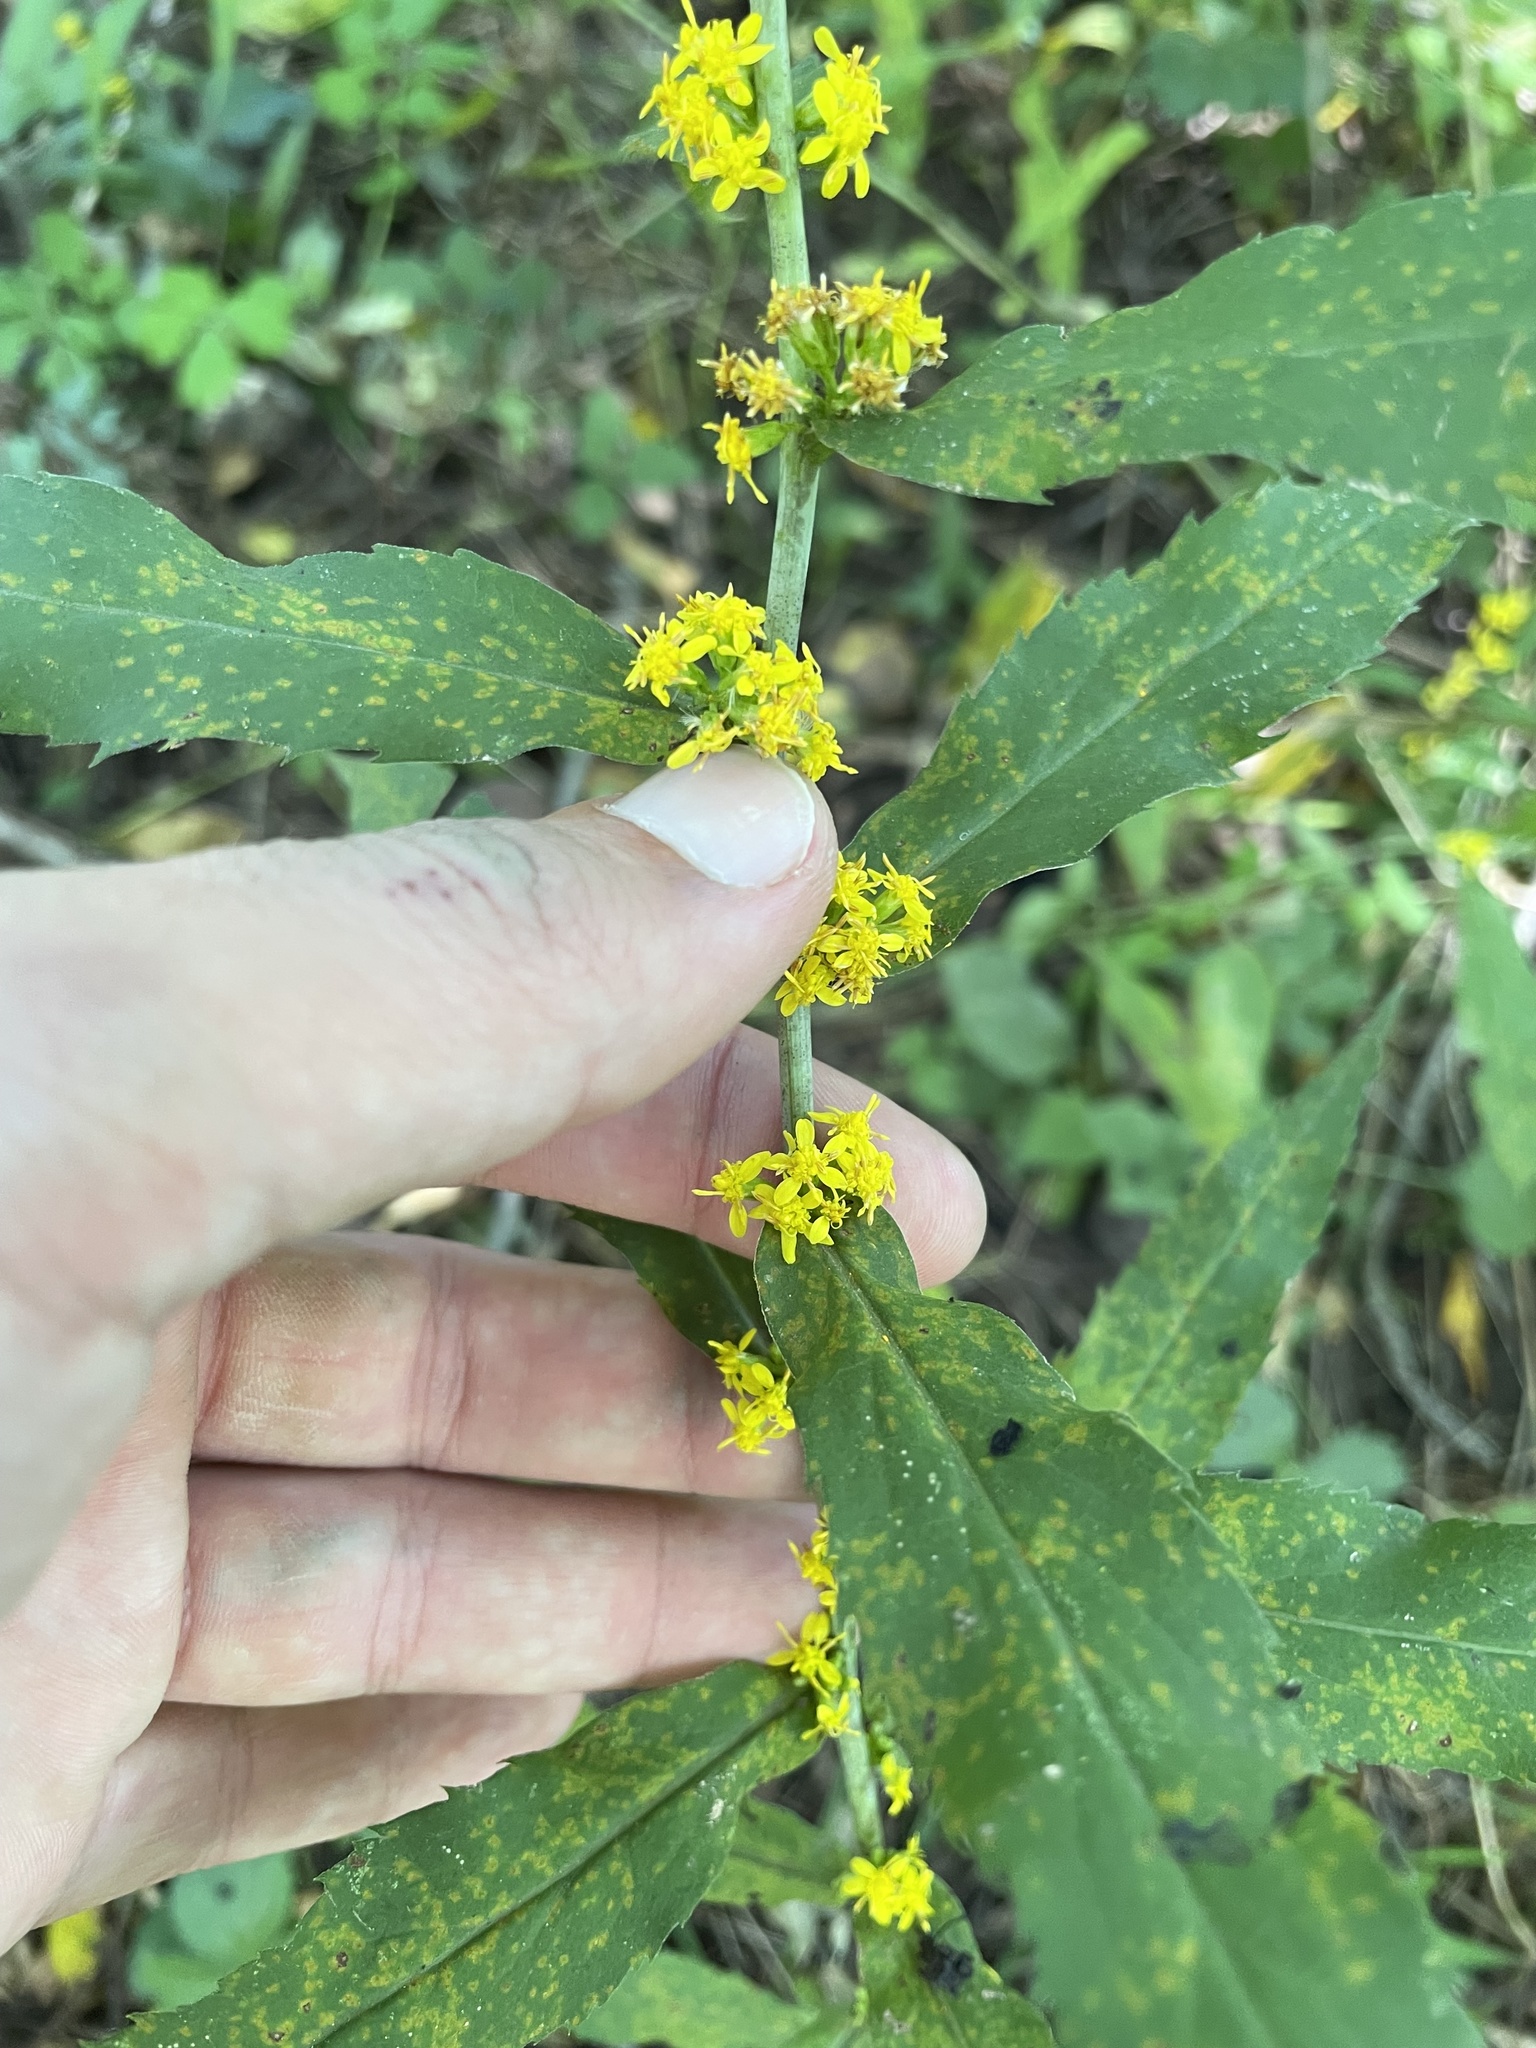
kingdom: Plantae
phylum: Tracheophyta
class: Magnoliopsida
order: Asterales
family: Asteraceae
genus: Solidago
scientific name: Solidago caesia
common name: Woodland goldenrod
